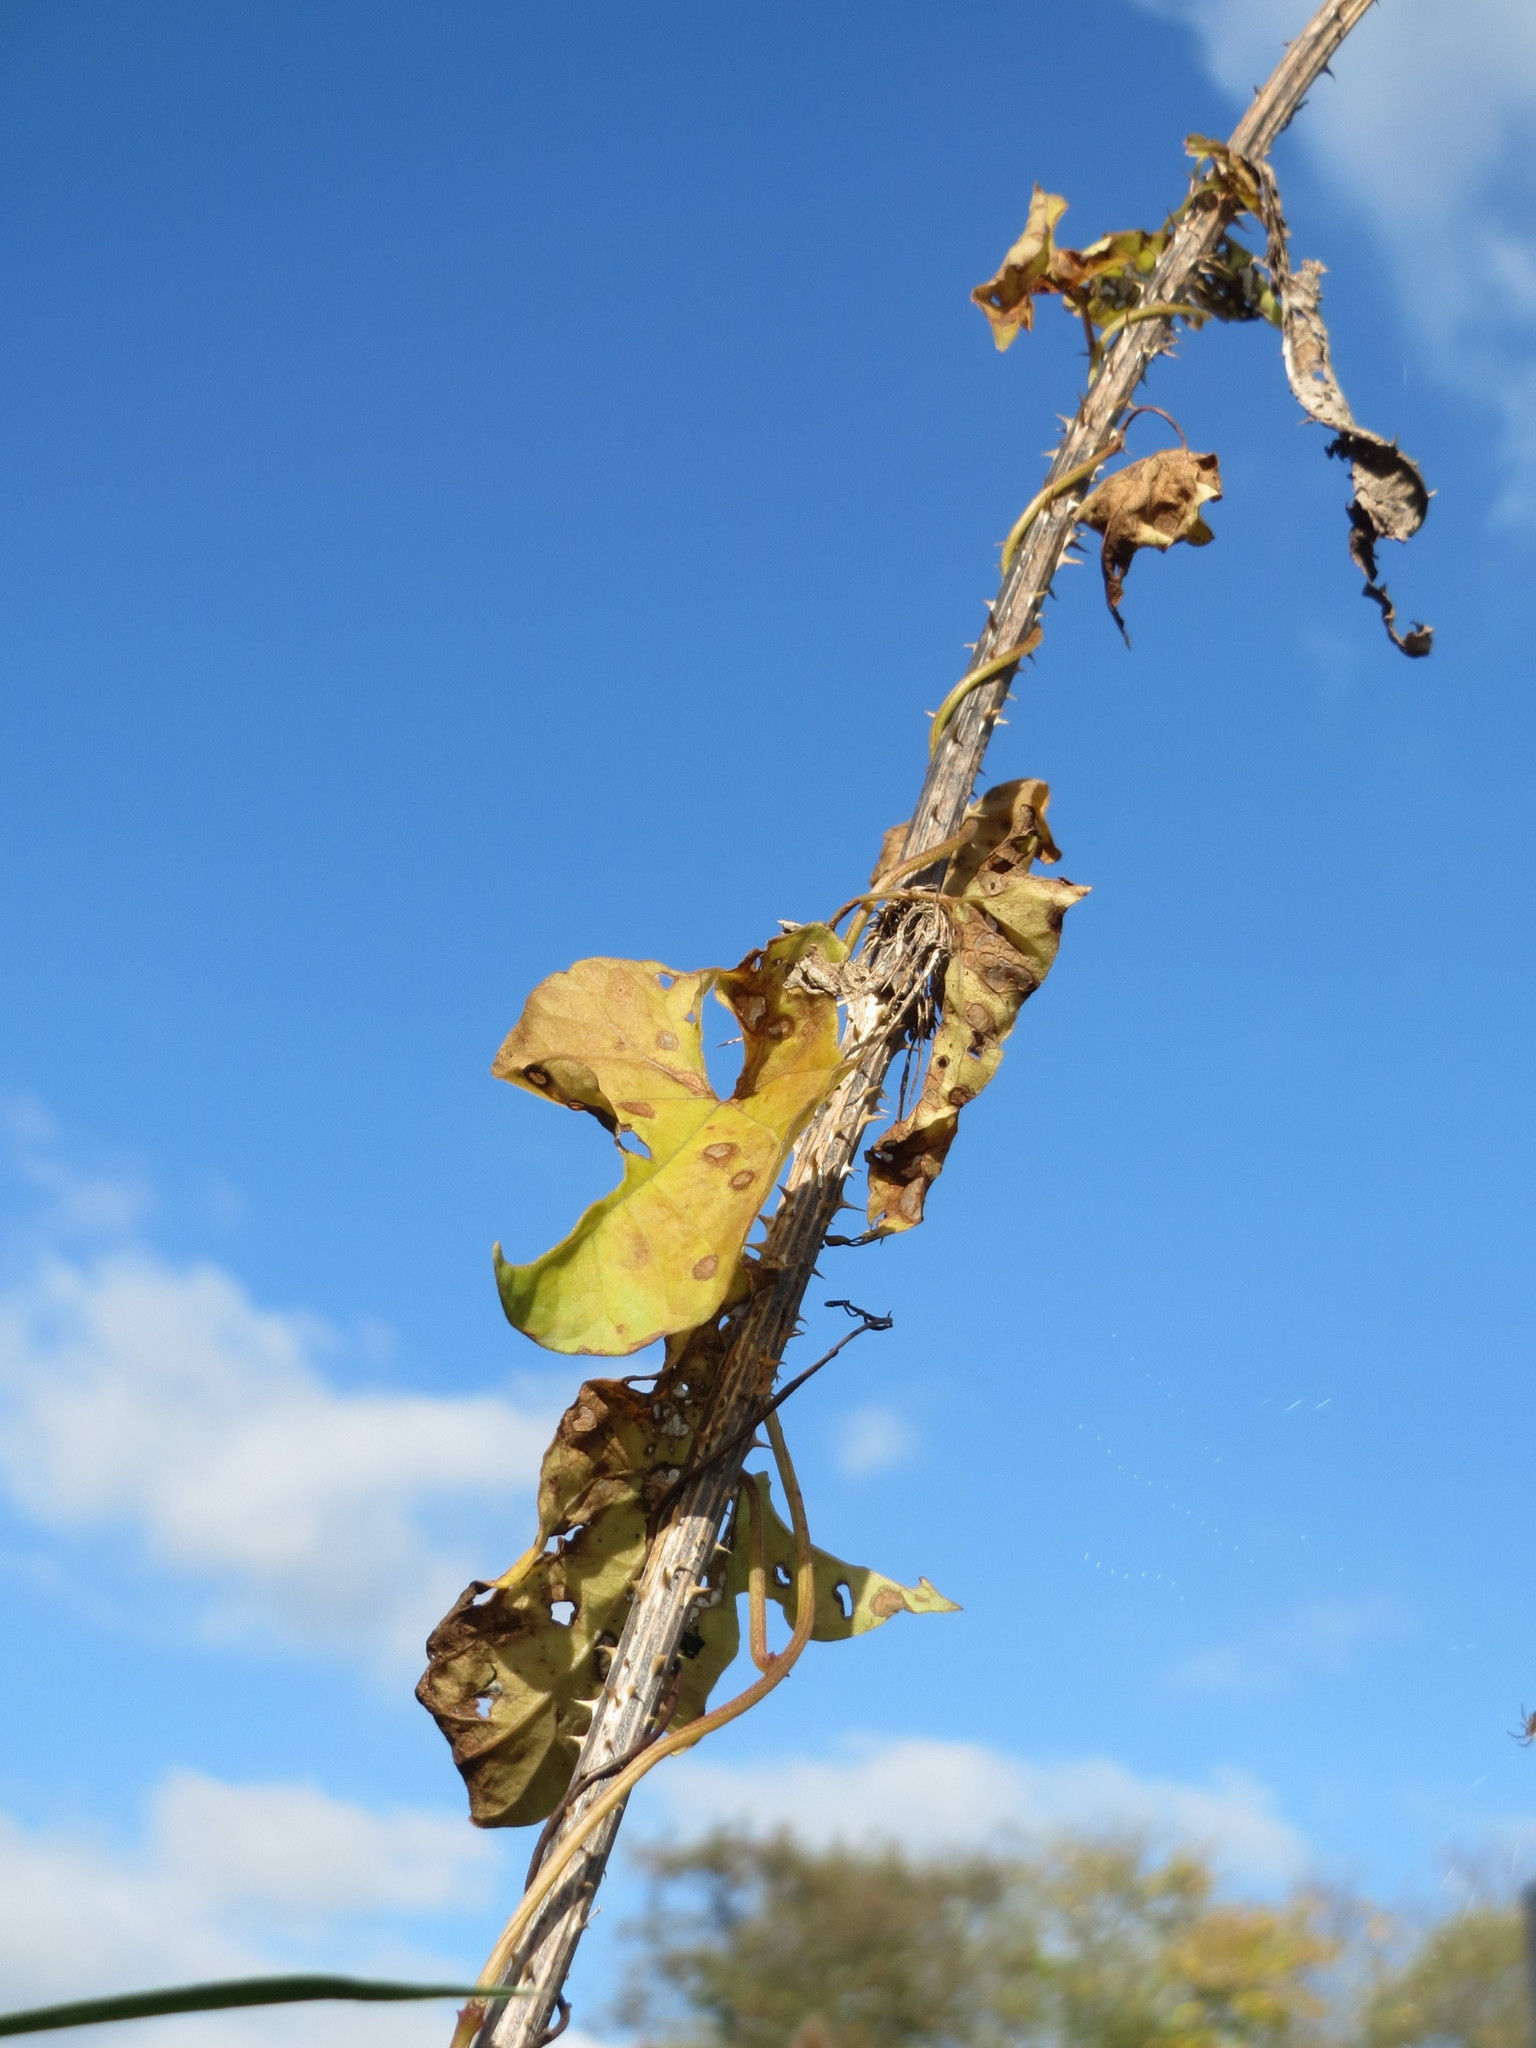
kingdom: Plantae
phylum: Tracheophyta
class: Magnoliopsida
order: Solanales
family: Convolvulaceae
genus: Calystegia
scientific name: Calystegia sepium
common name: Hedge bindweed
